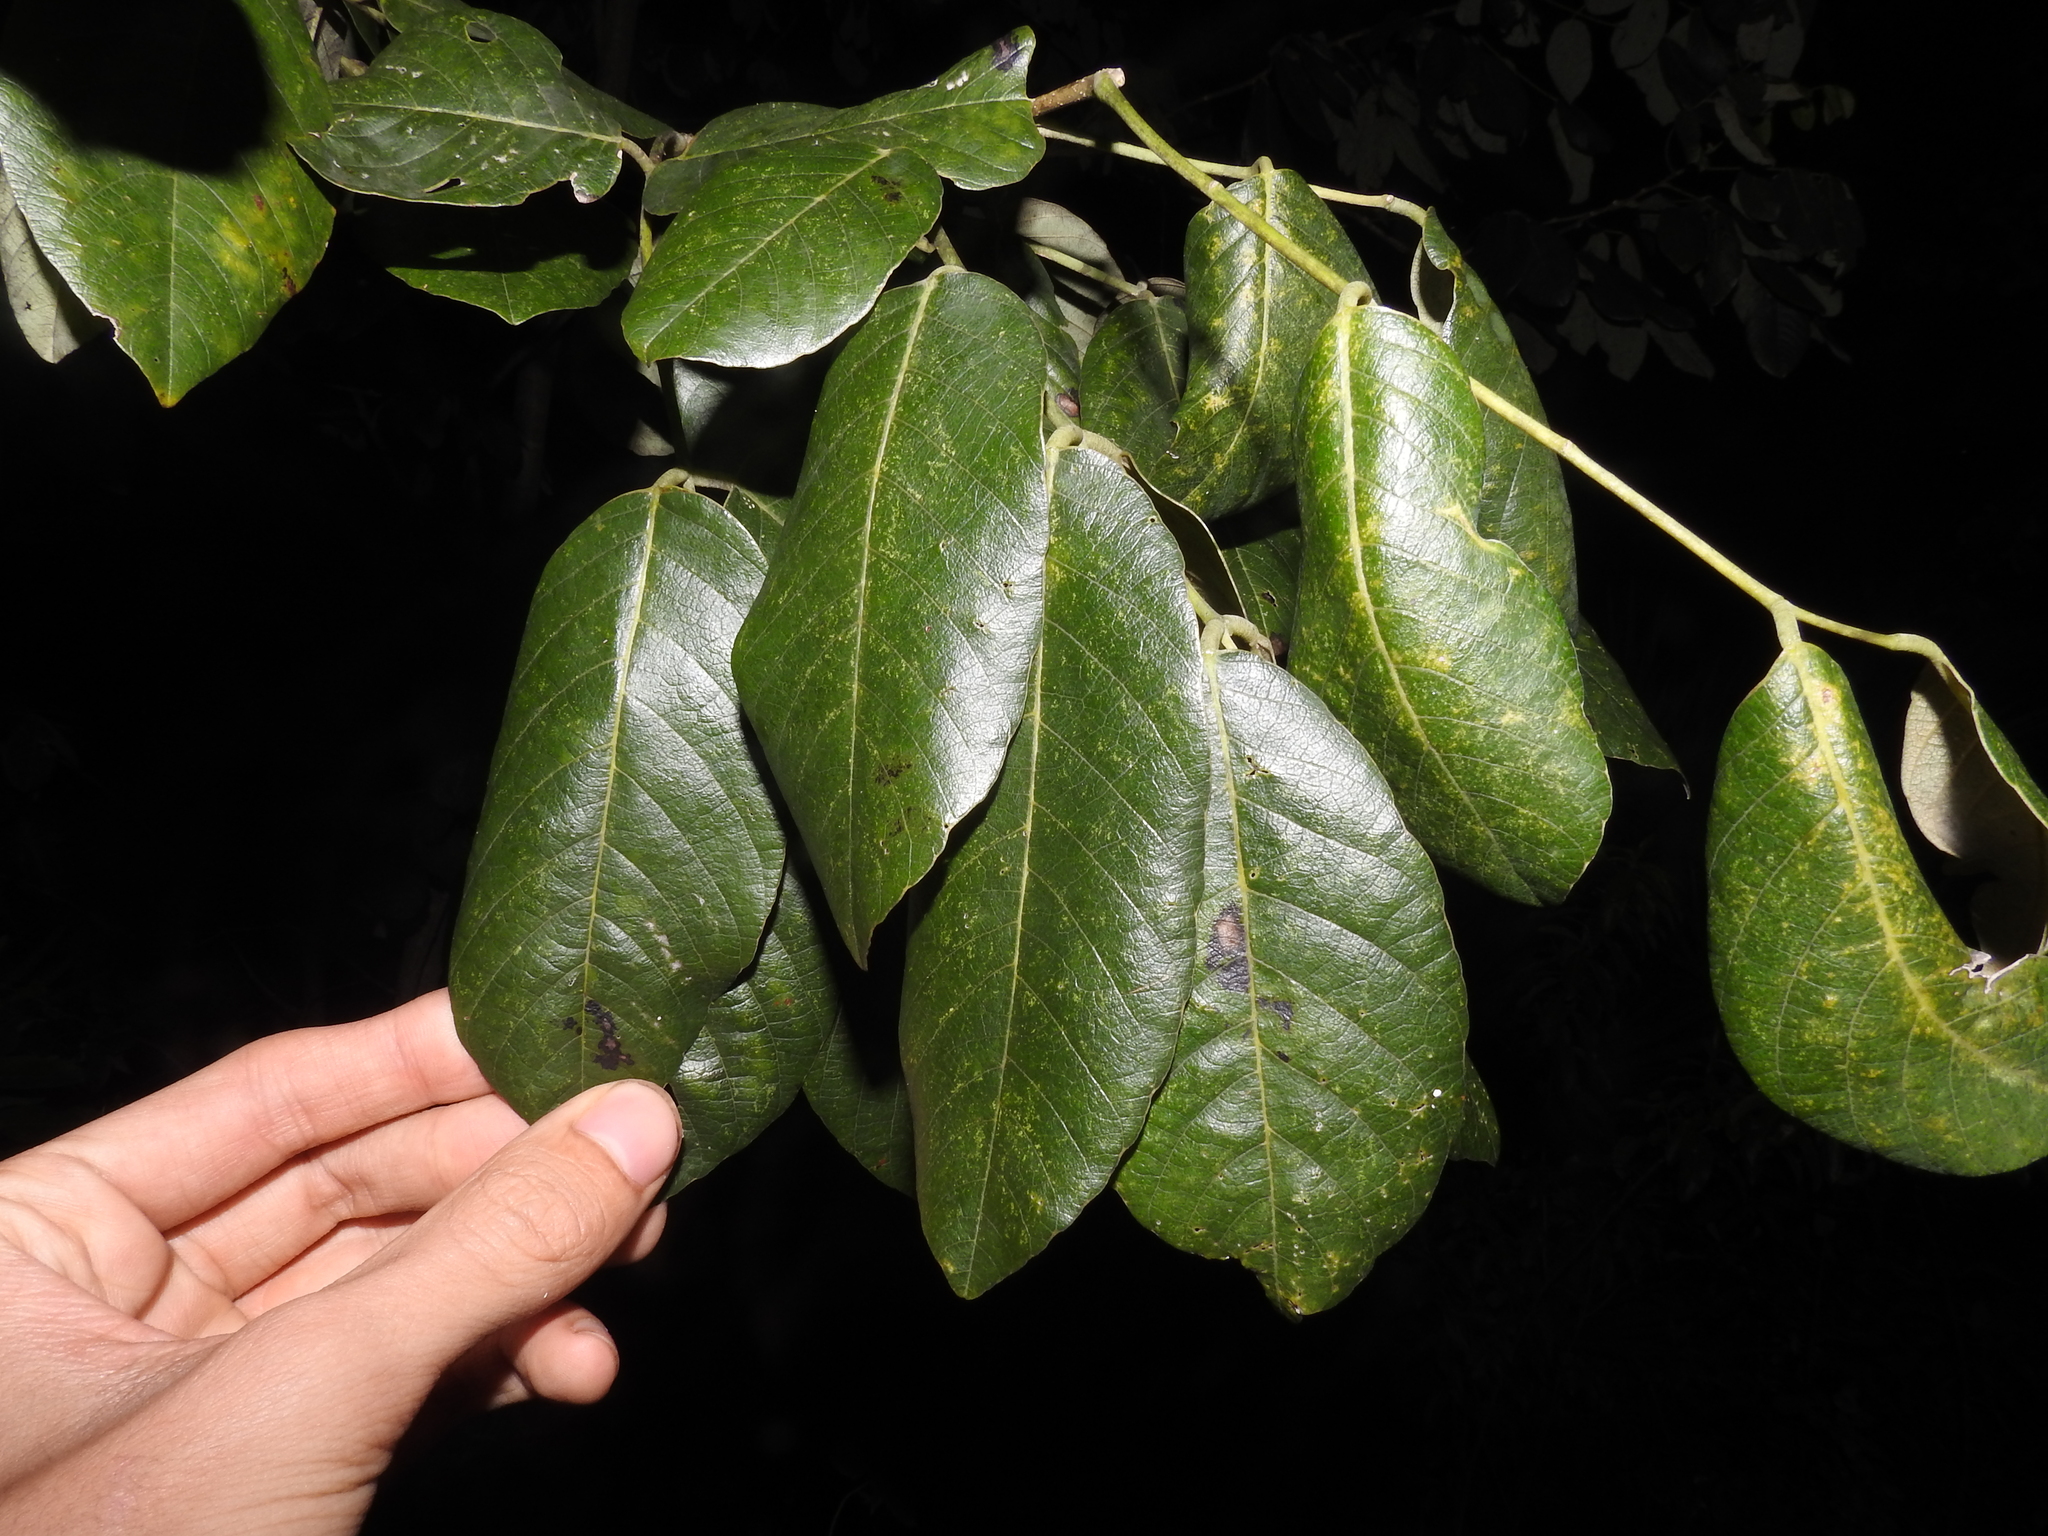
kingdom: Plantae
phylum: Tracheophyta
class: Magnoliopsida
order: Fabales
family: Fabaceae
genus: Piscidia
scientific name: Piscidia piscipula
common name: Florida fishpoison tree
